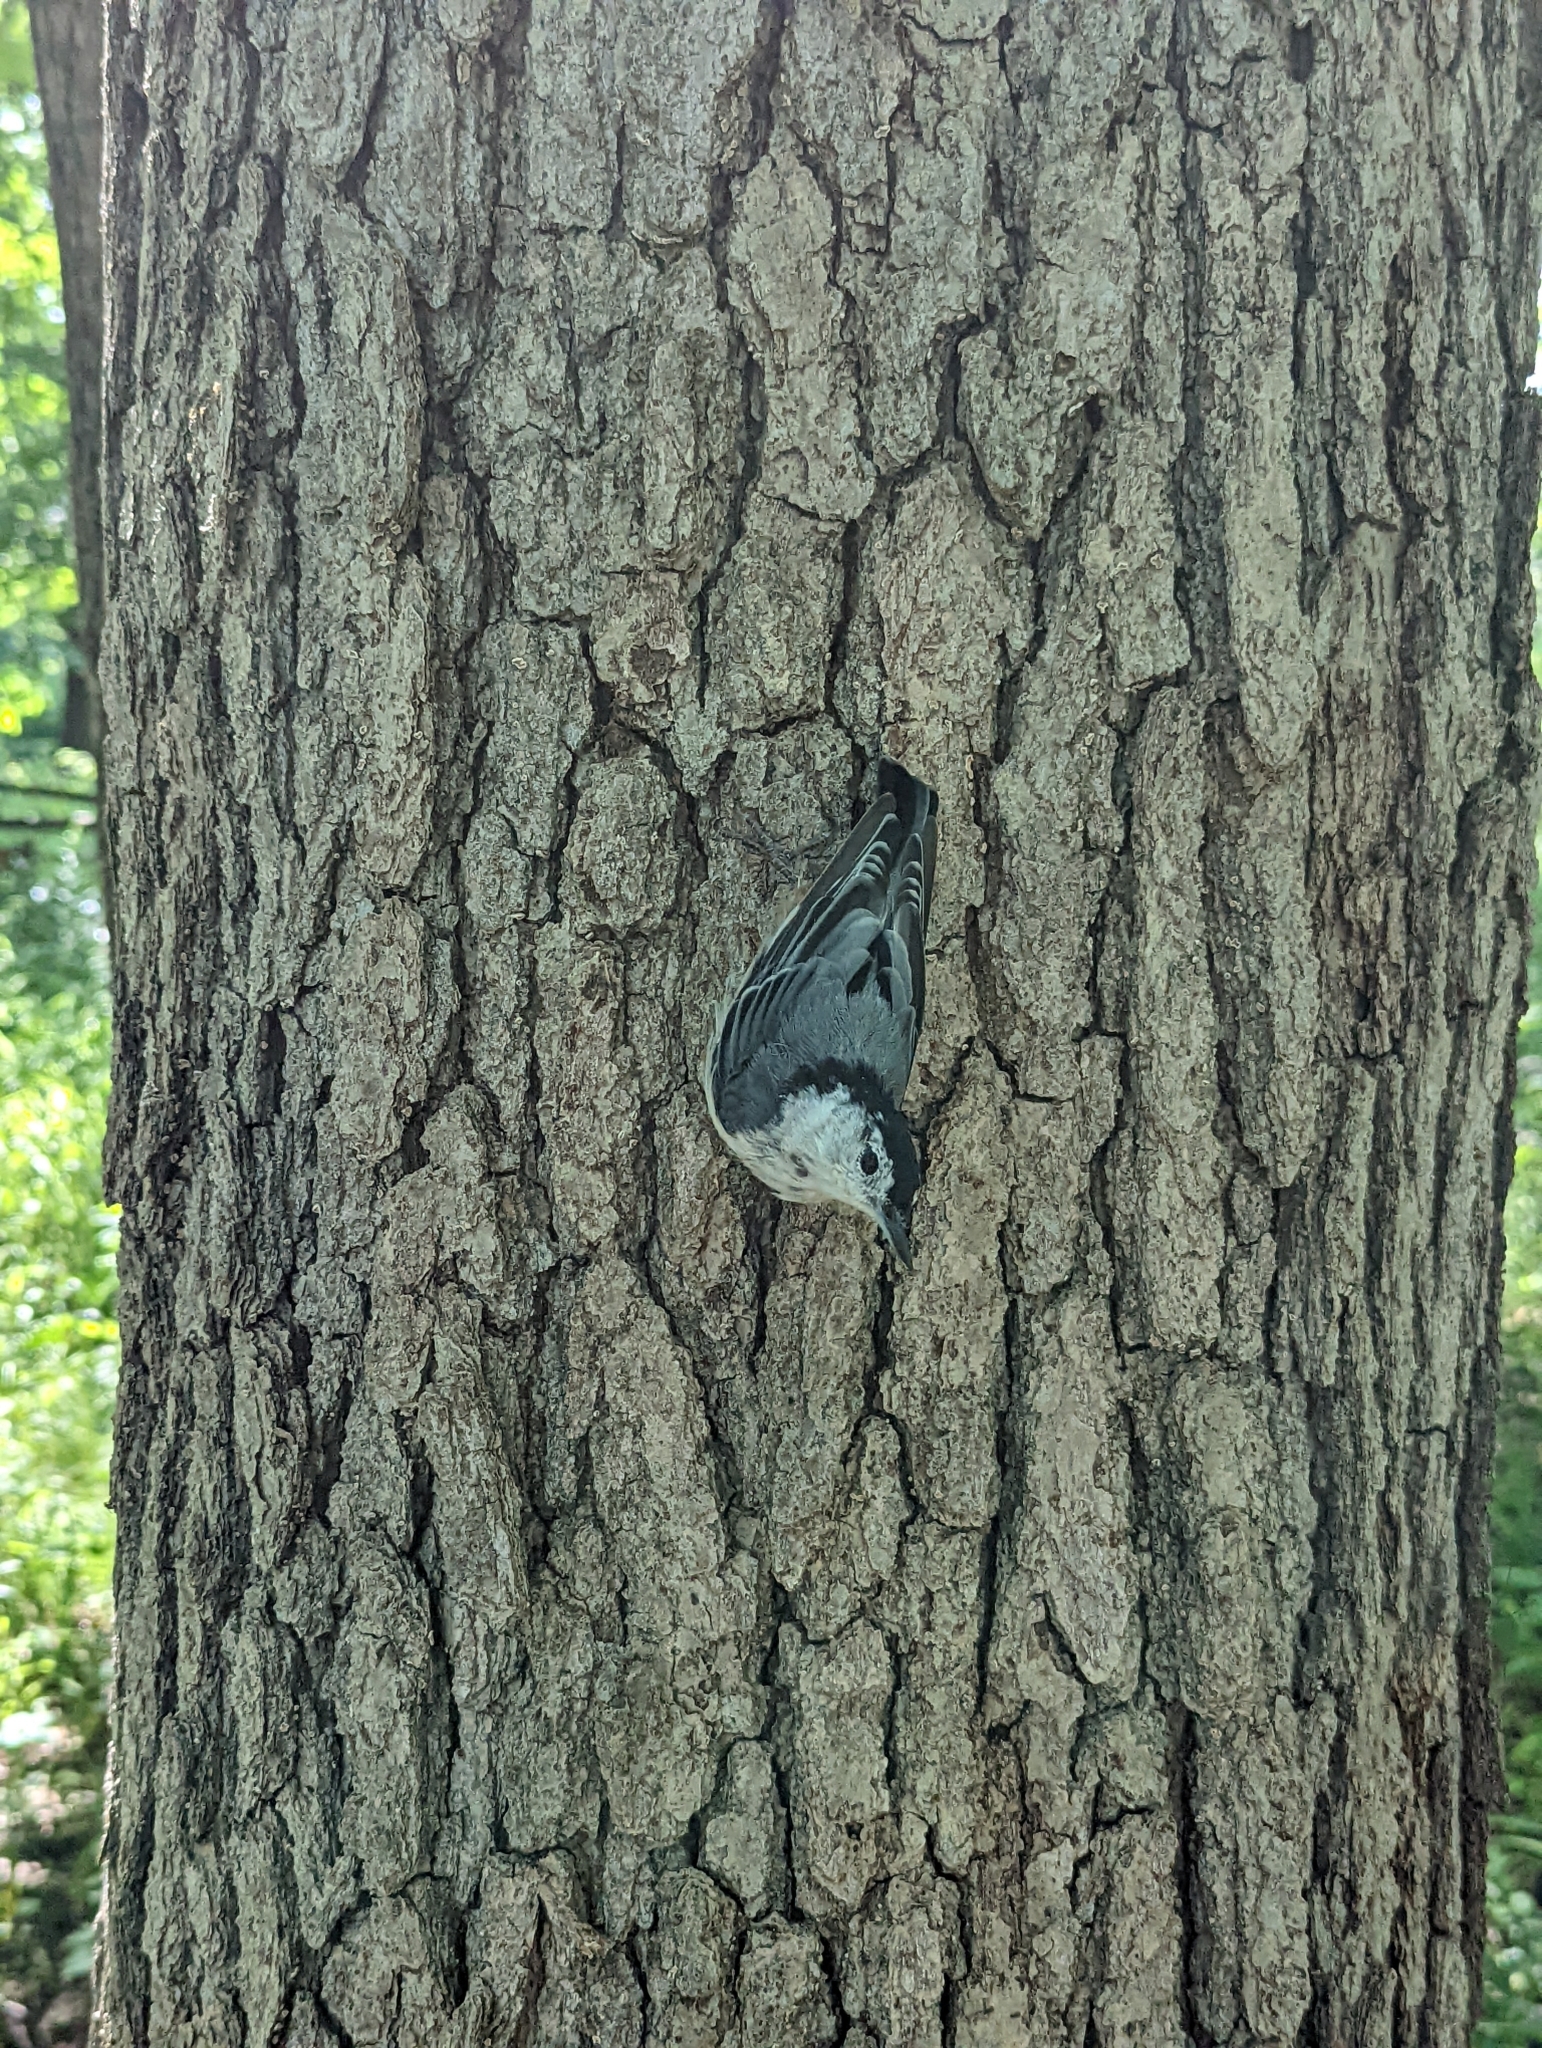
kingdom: Animalia
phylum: Chordata
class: Aves
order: Passeriformes
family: Sittidae
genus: Sitta
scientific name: Sitta carolinensis
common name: White-breasted nuthatch
